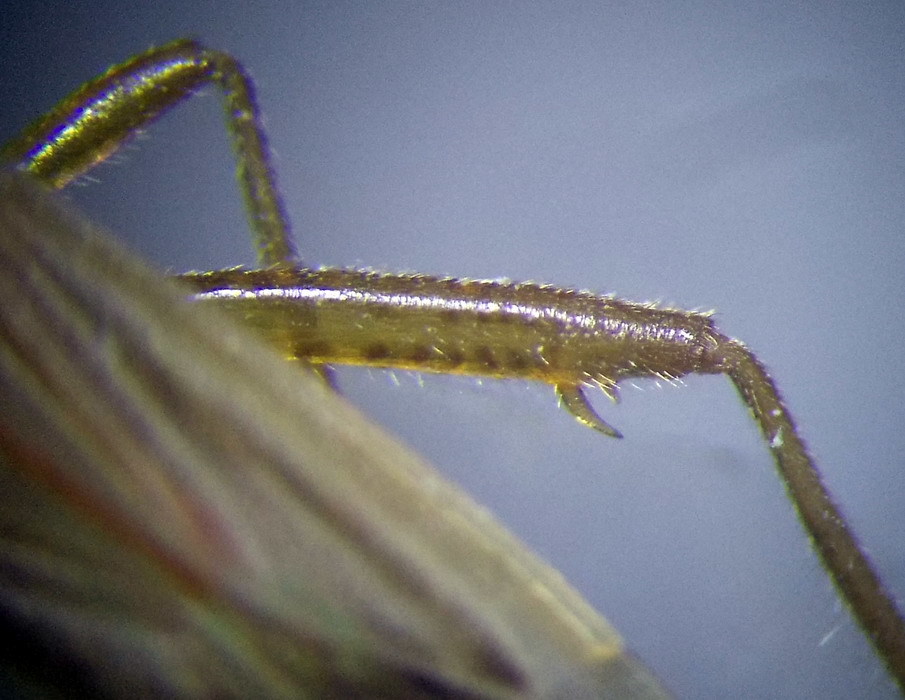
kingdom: Animalia
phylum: Arthropoda
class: Insecta
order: Hemiptera
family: Miridae
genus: Stenodema
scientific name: Stenodema calcarata
